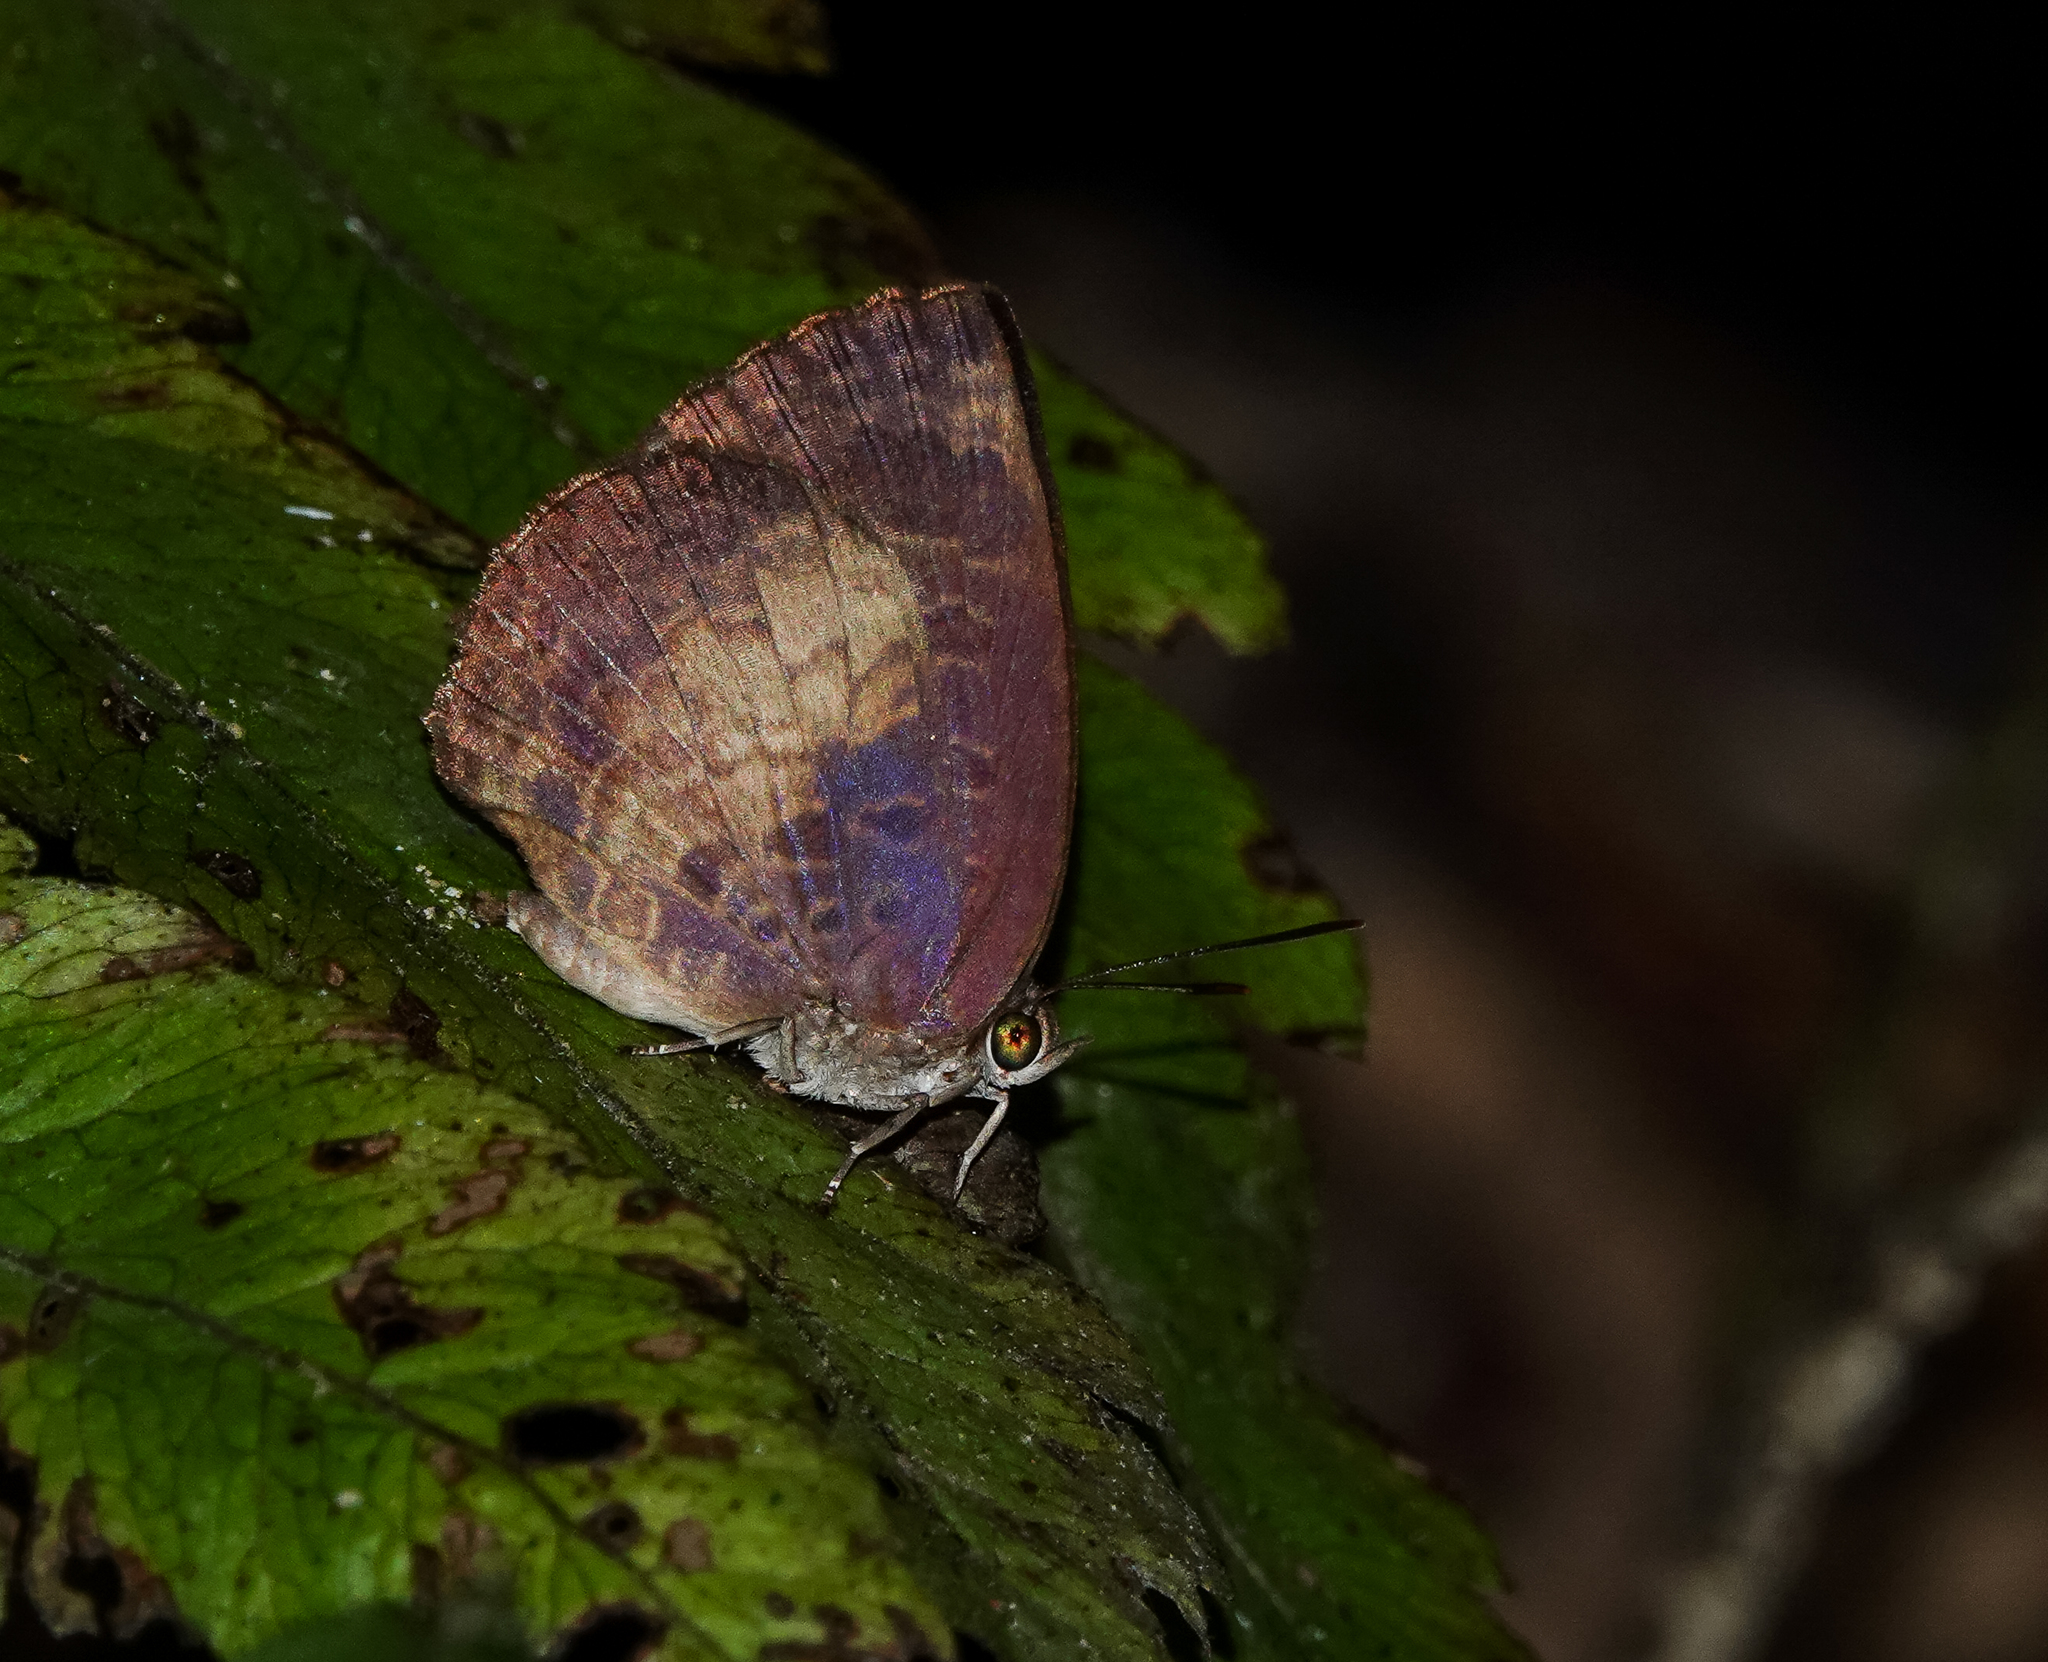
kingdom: Animalia
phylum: Arthropoda
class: Insecta
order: Lepidoptera
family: Lycaenidae
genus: Arhopala
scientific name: Arhopala perimuta
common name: Yellowdisc oakblue
